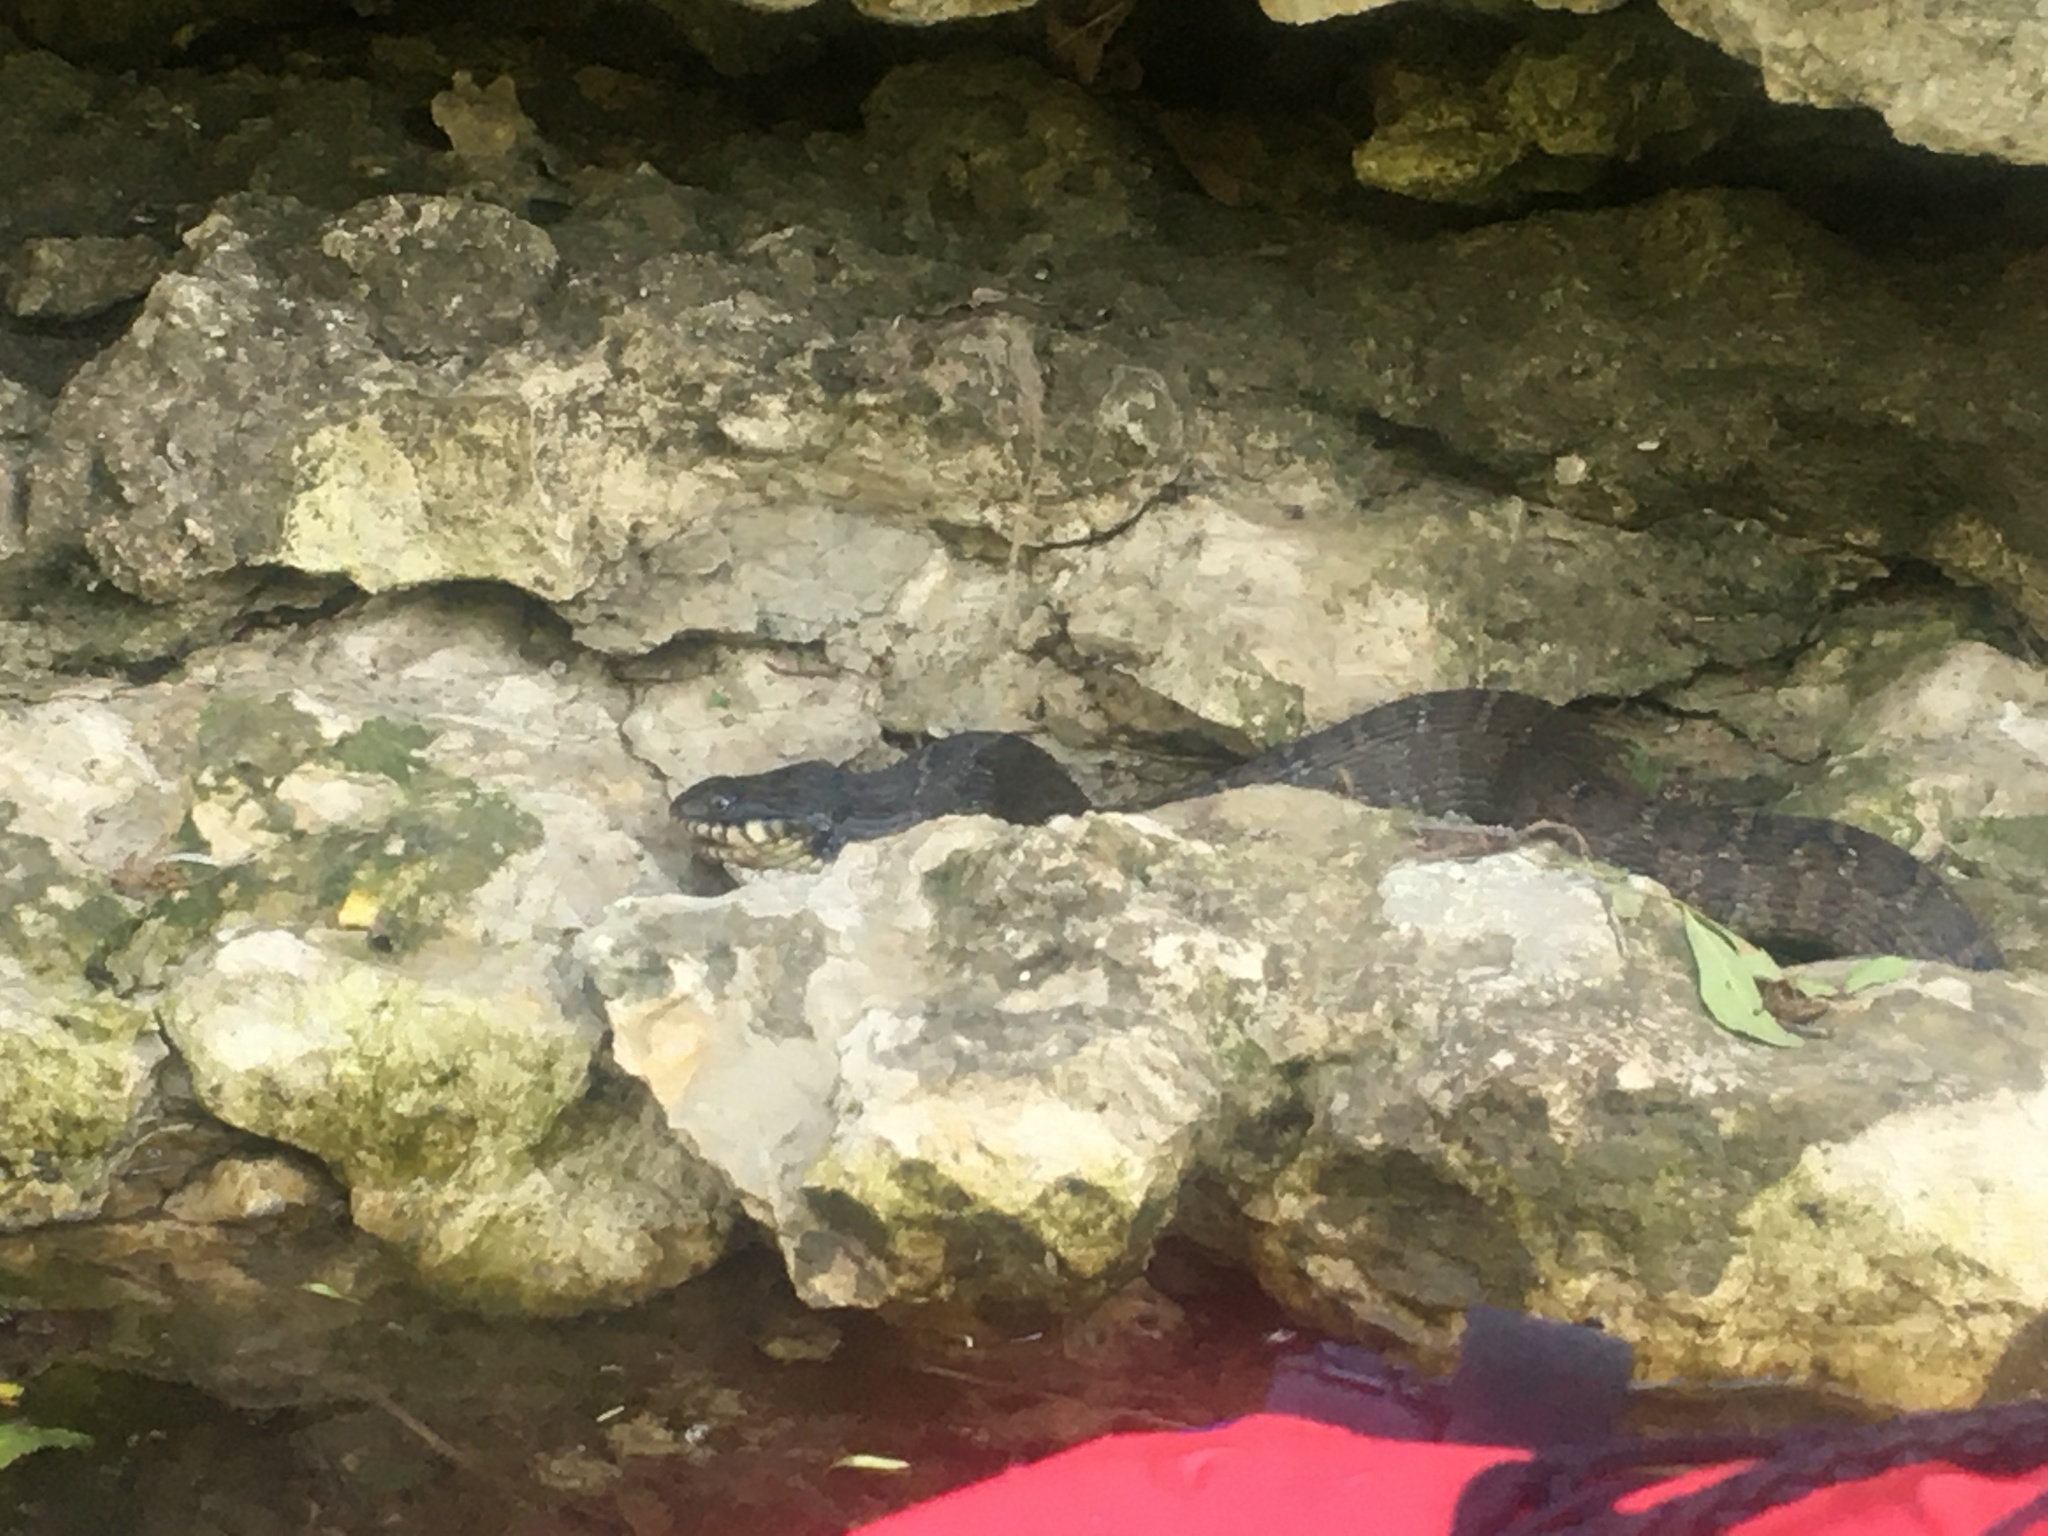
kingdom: Animalia
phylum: Chordata
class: Squamata
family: Colubridae
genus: Nerodia
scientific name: Nerodia erythrogaster
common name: Plainbelly water snake
